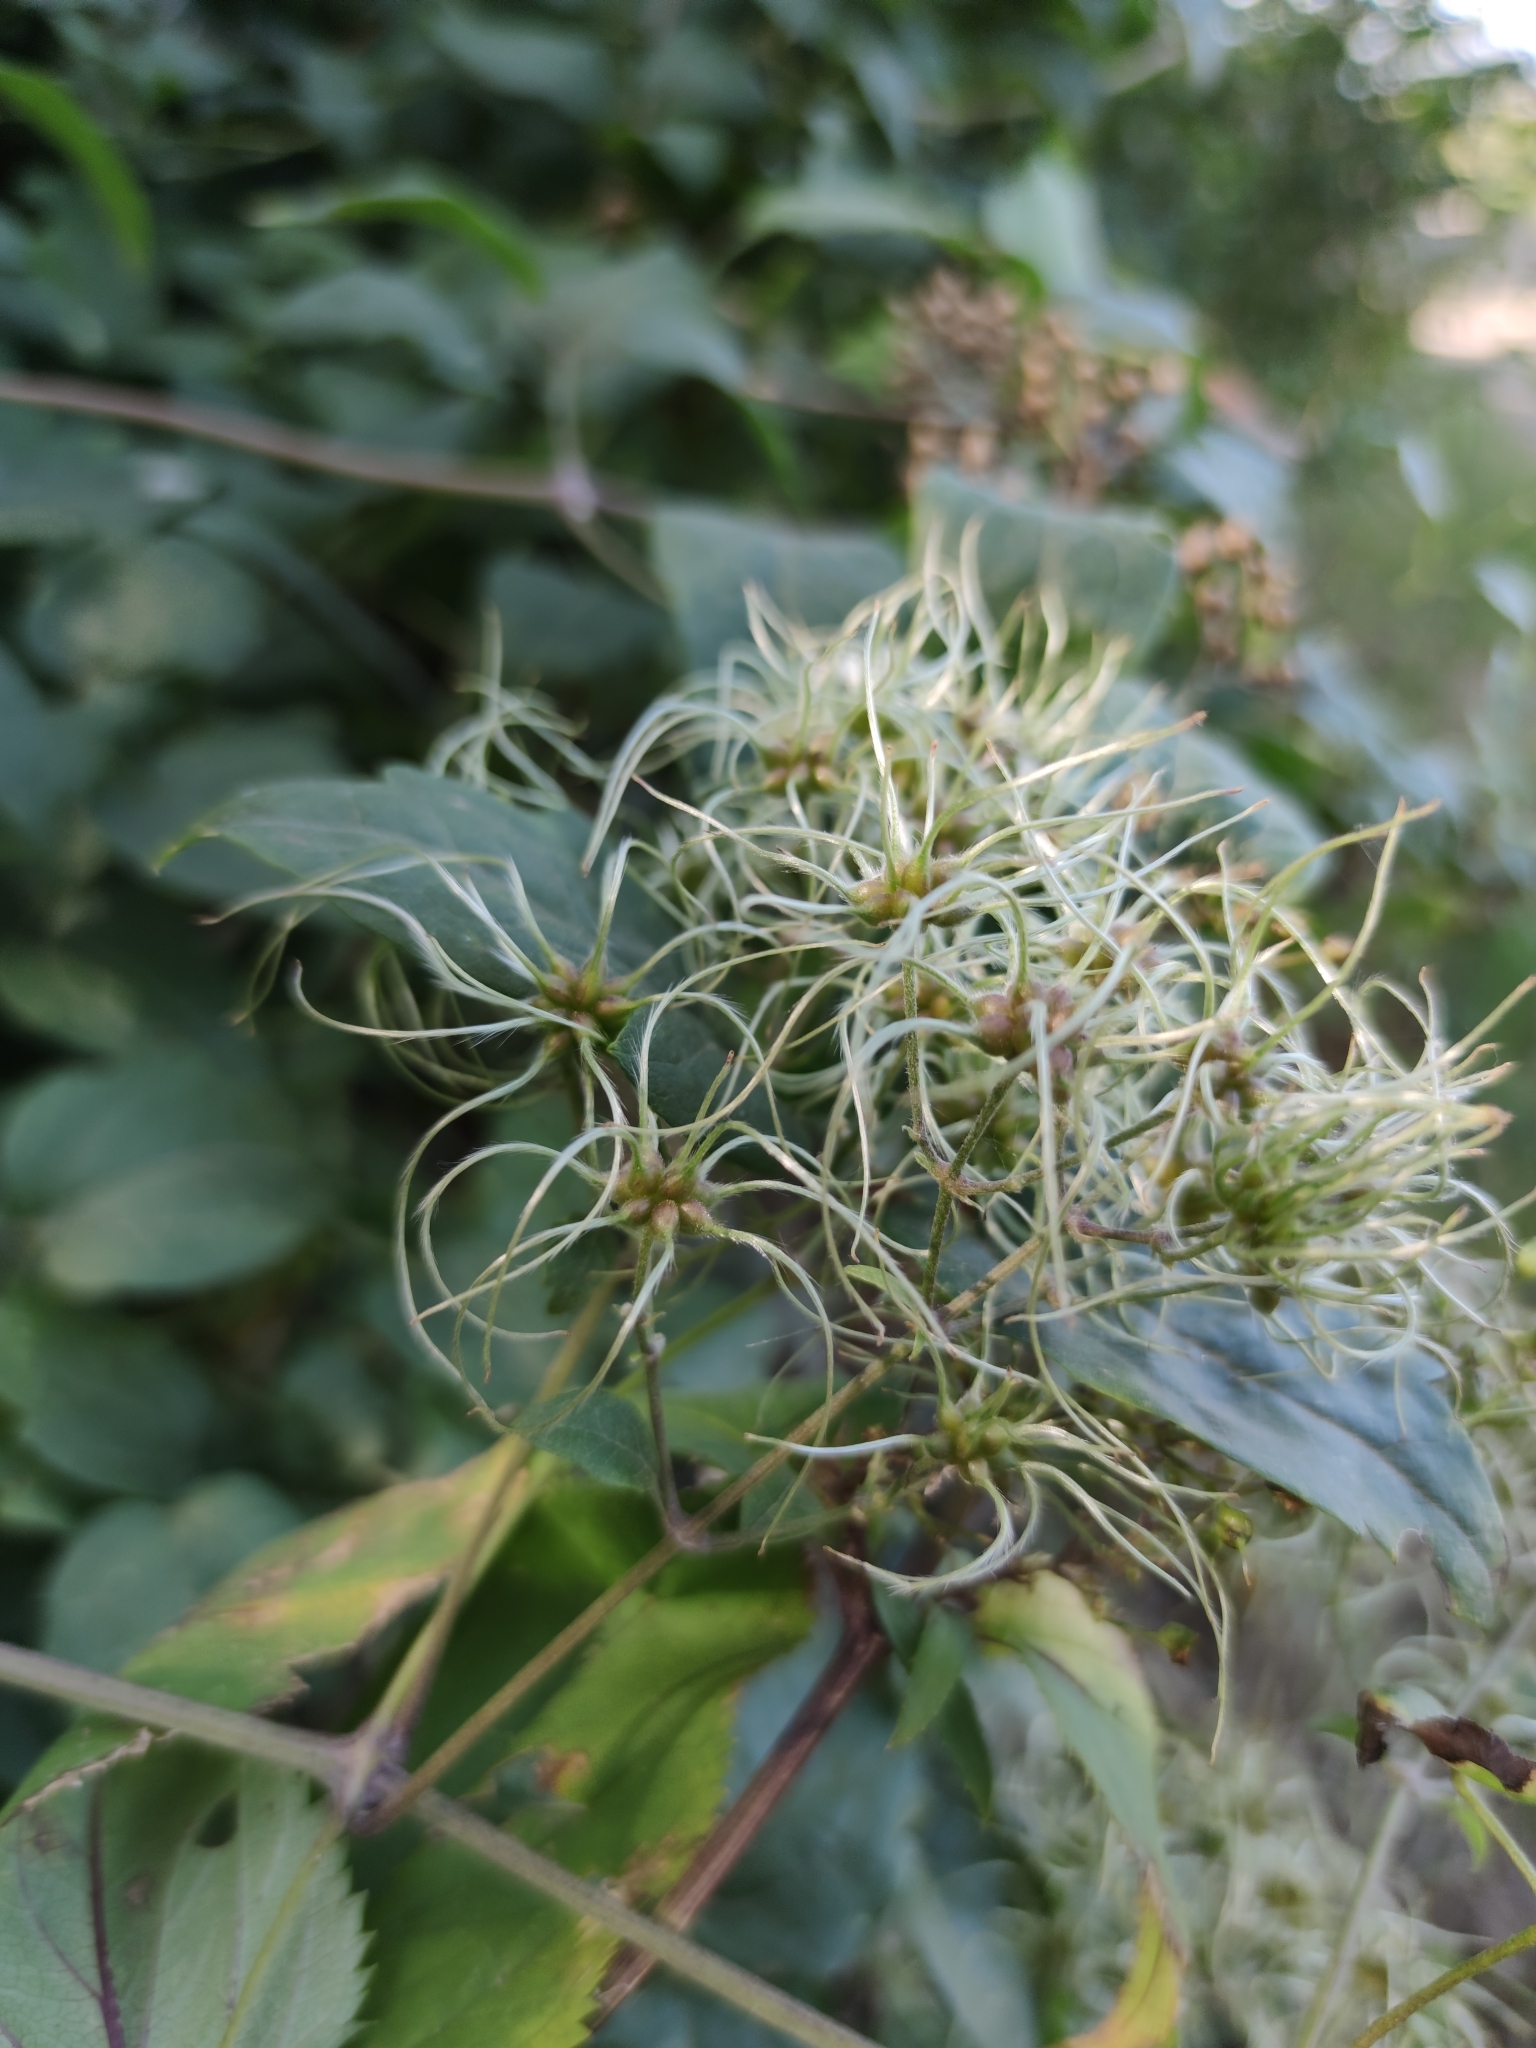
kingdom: Plantae
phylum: Tracheophyta
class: Magnoliopsida
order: Ranunculales
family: Ranunculaceae
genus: Clematis
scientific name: Clematis vitalba
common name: Evergreen clematis
